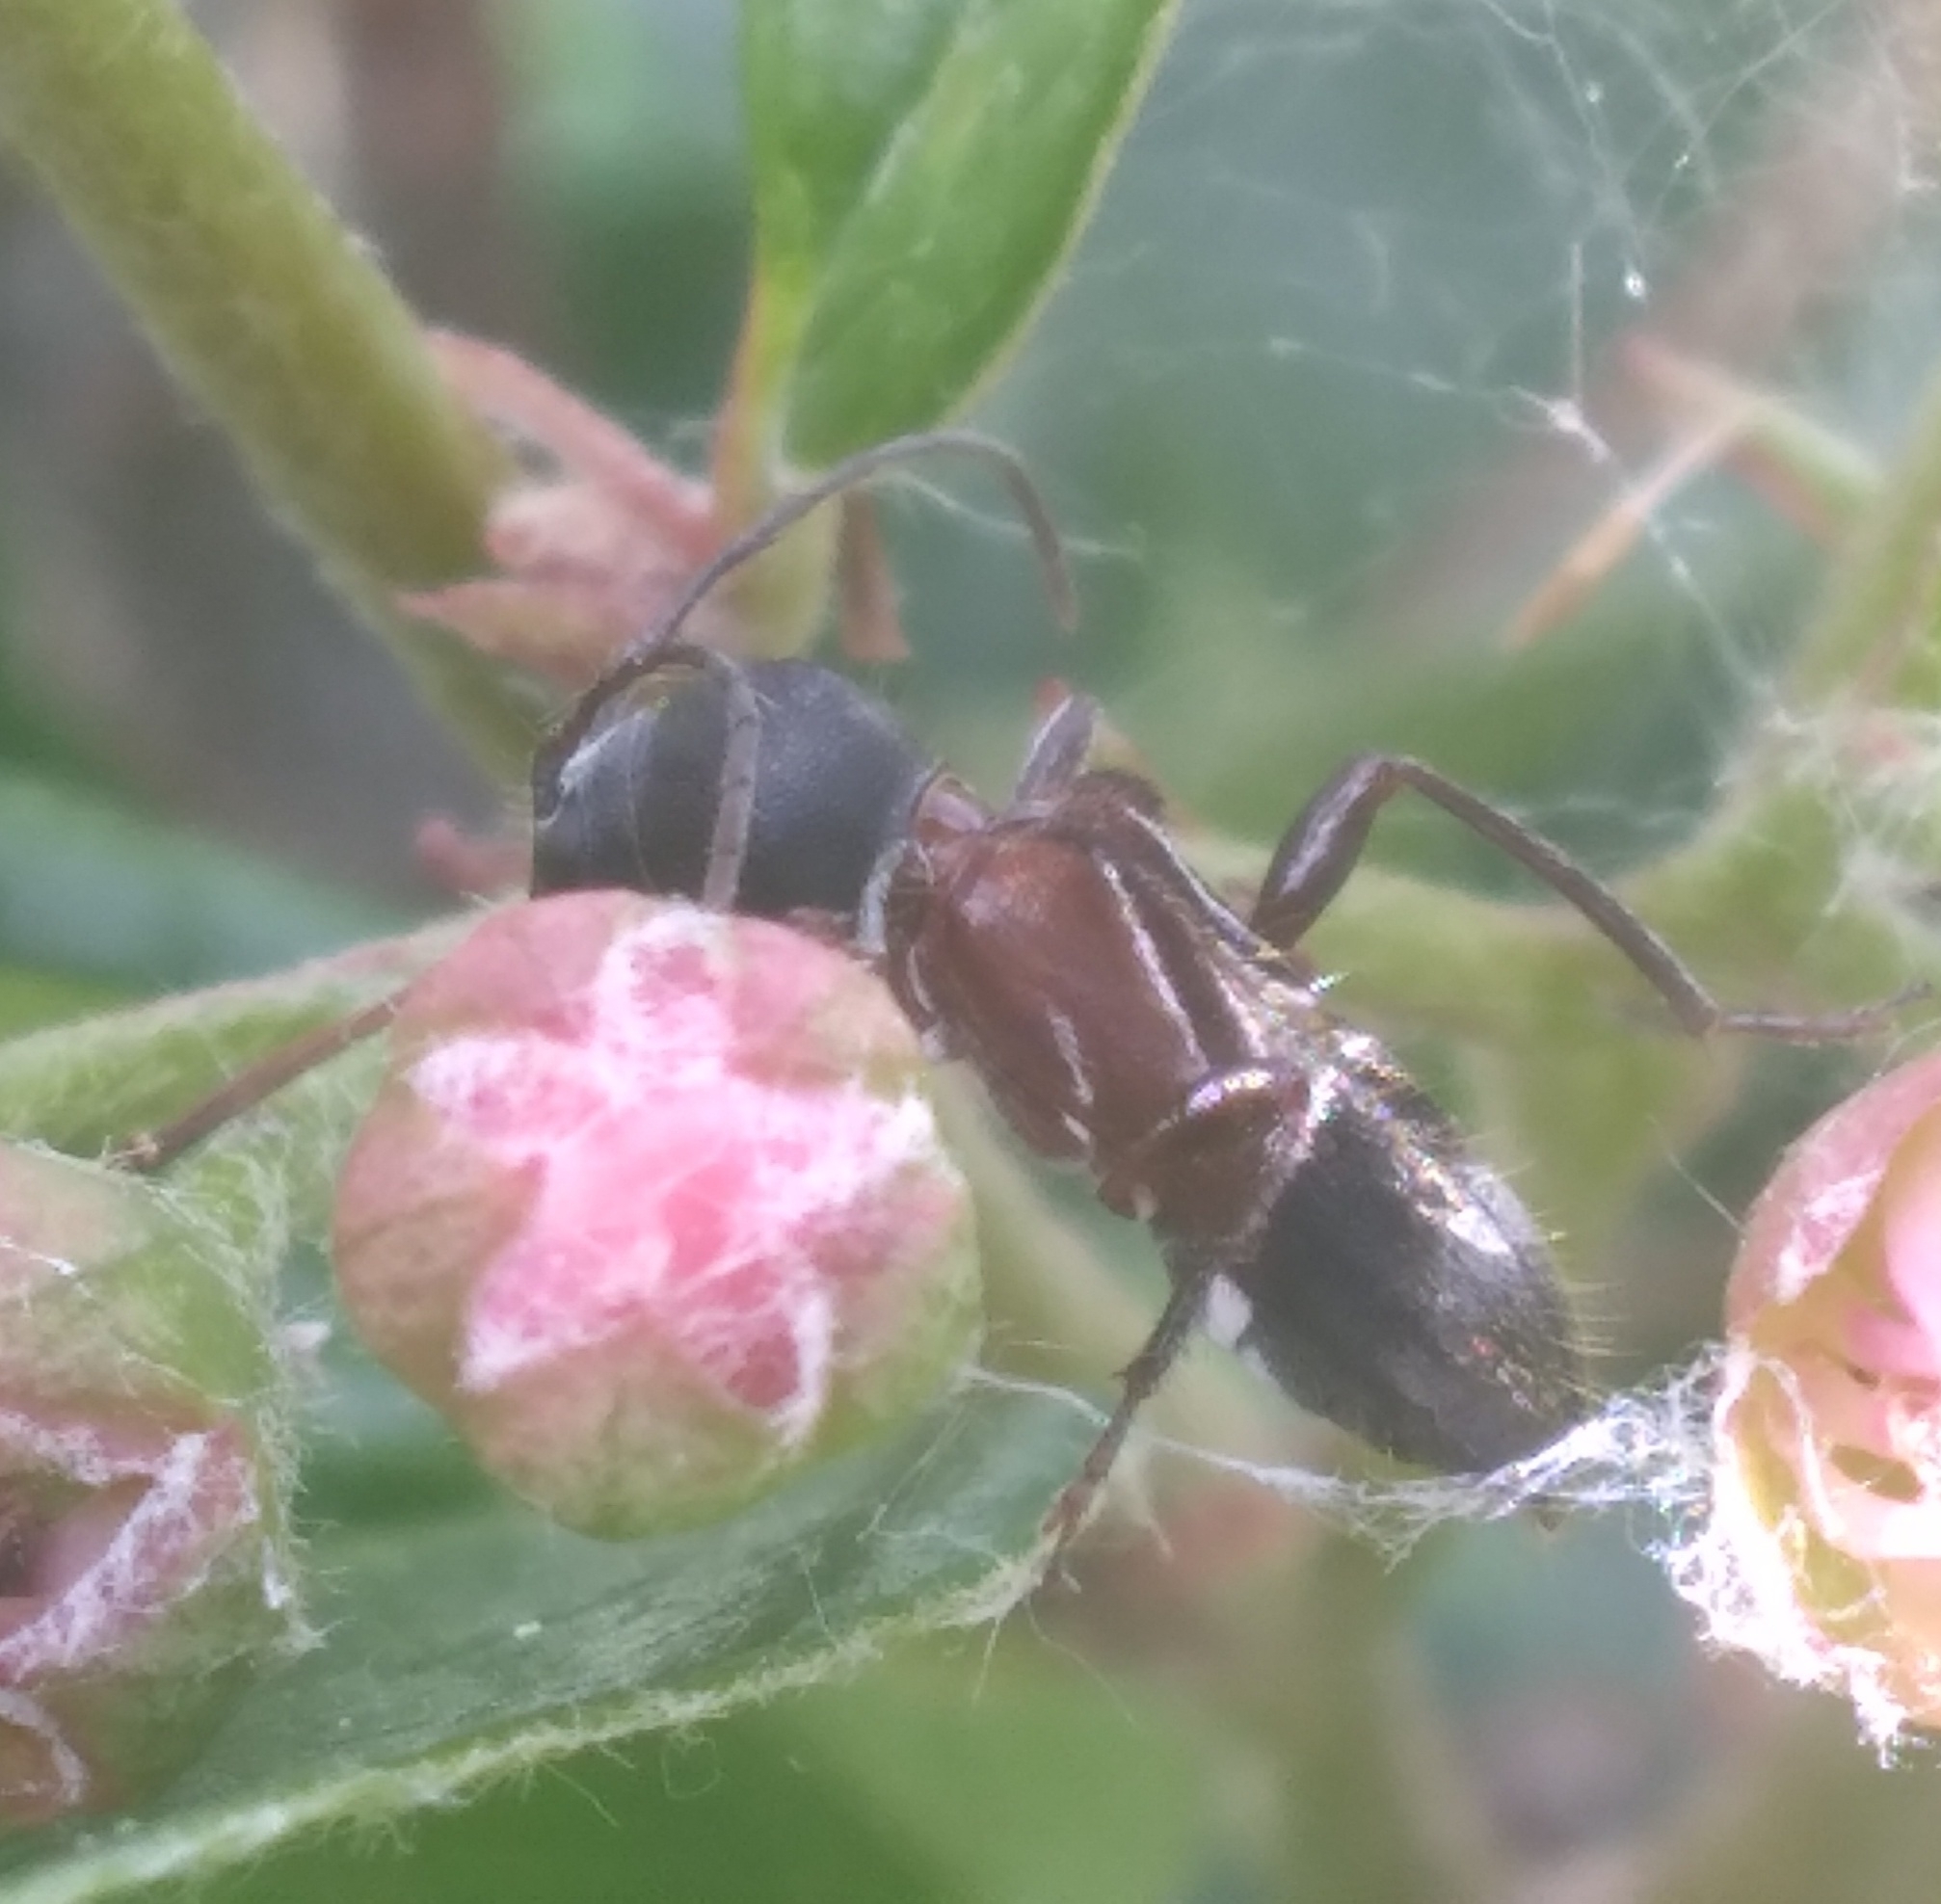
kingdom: Animalia
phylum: Arthropoda
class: Insecta
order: Coleoptera
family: Cerambycidae
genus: Cyrtophorus
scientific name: Cyrtophorus verrucosus
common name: Ant-like longhorn beetle
